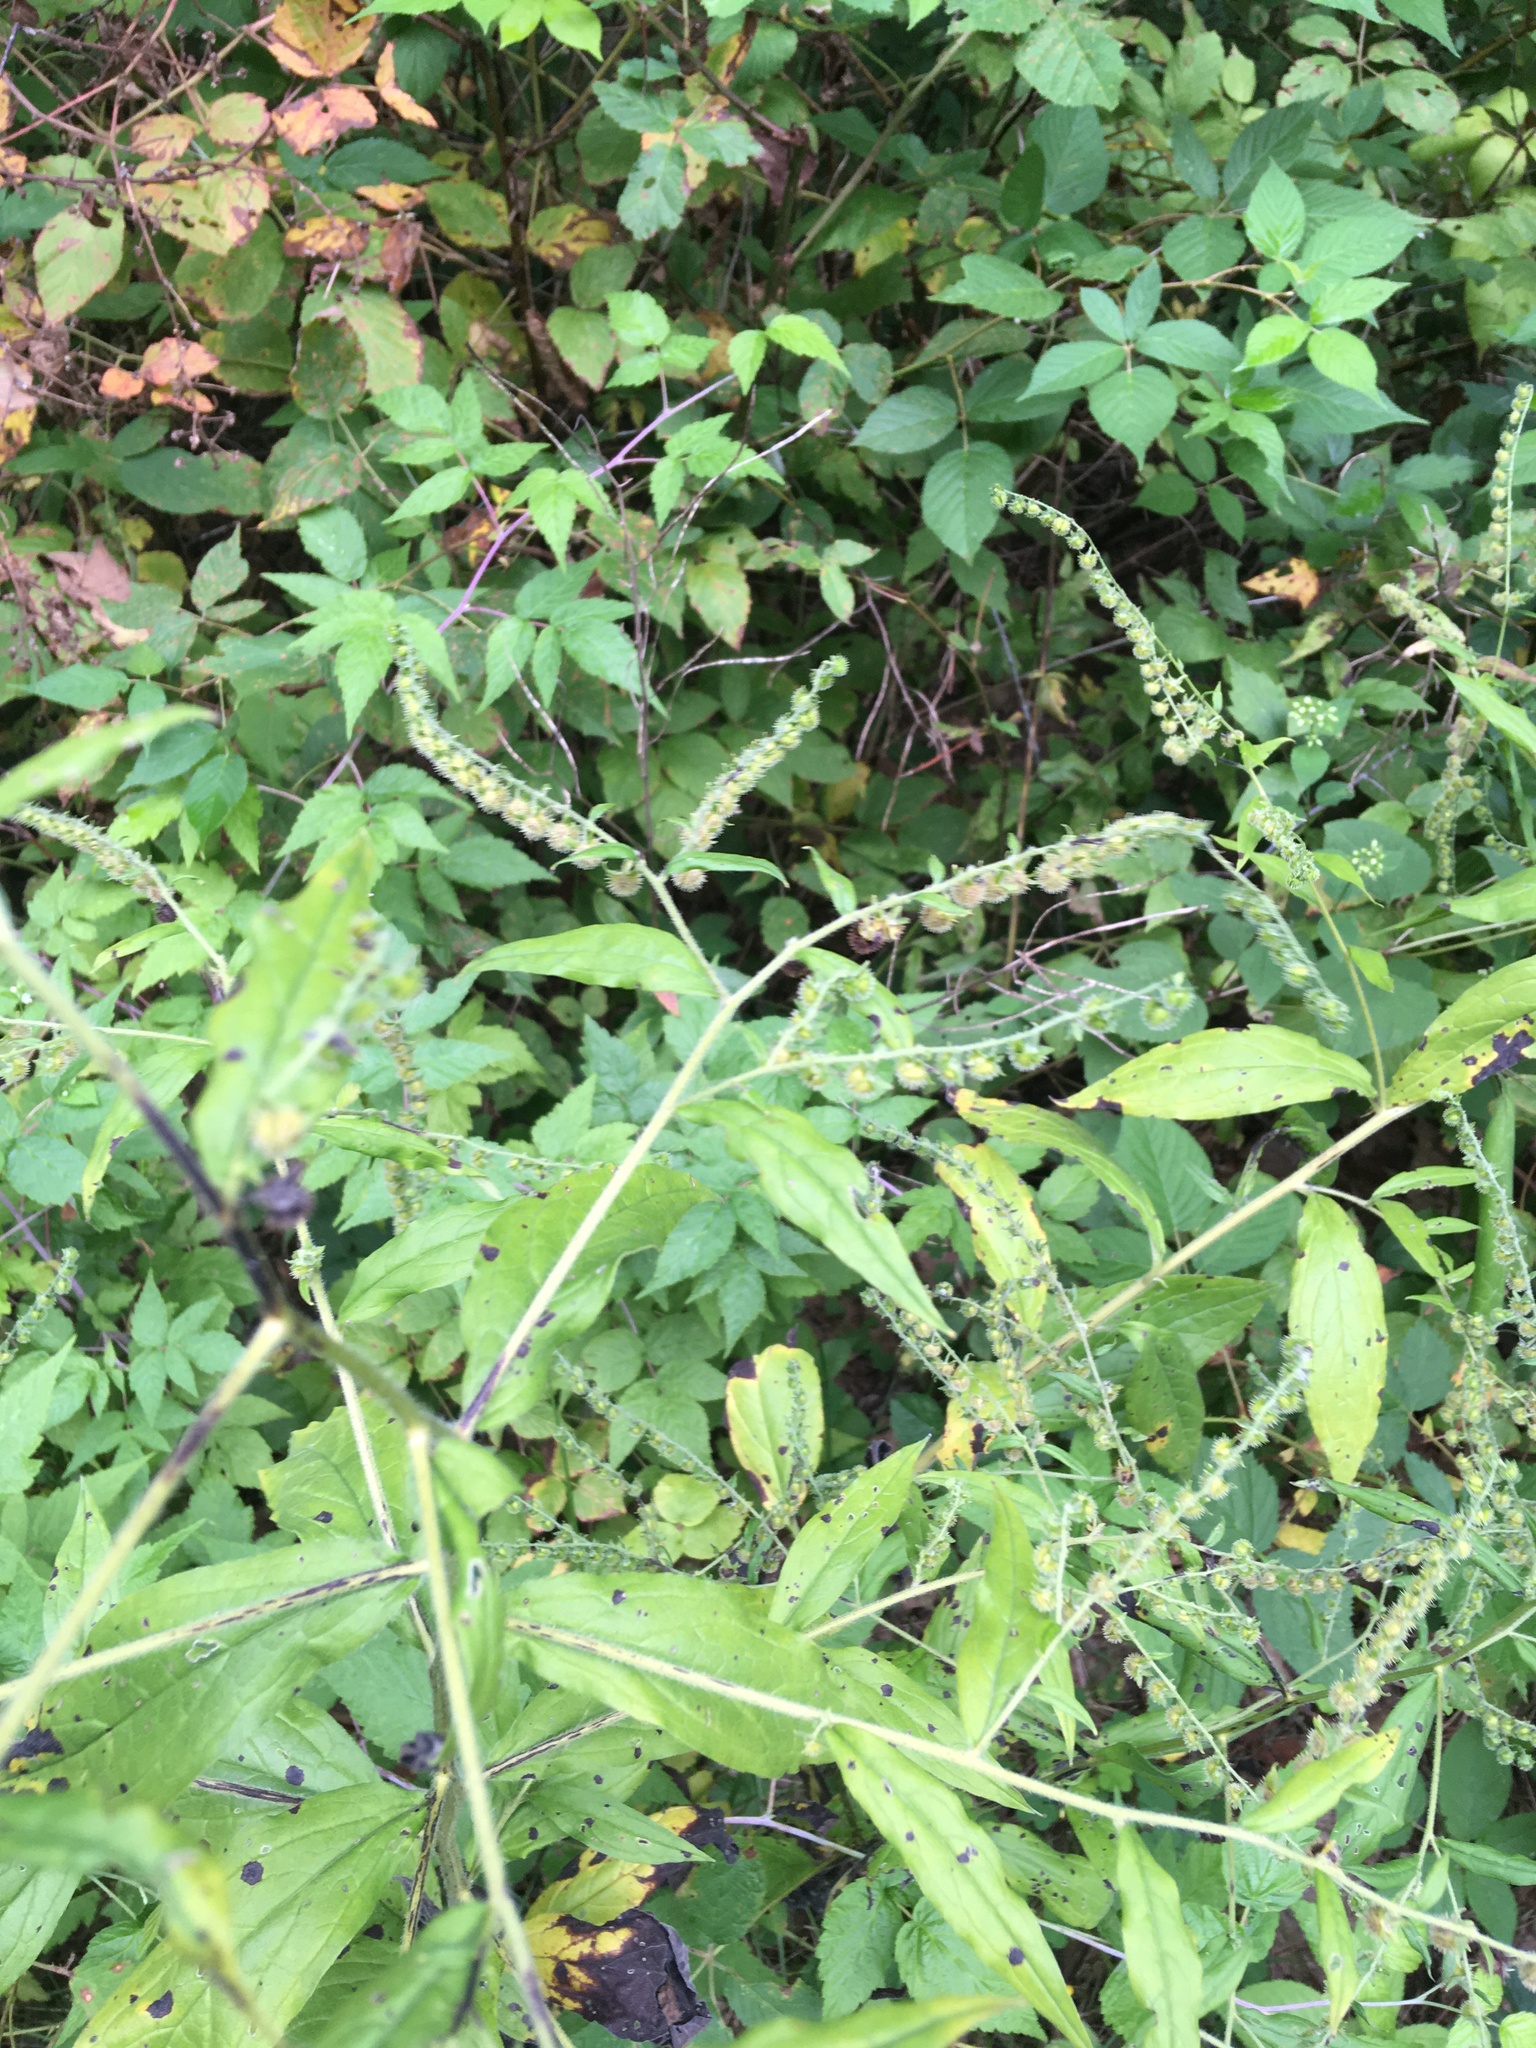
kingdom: Plantae
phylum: Tracheophyta
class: Magnoliopsida
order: Boraginales
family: Boraginaceae
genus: Hackelia
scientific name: Hackelia virginiana
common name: Beggar's-lice
